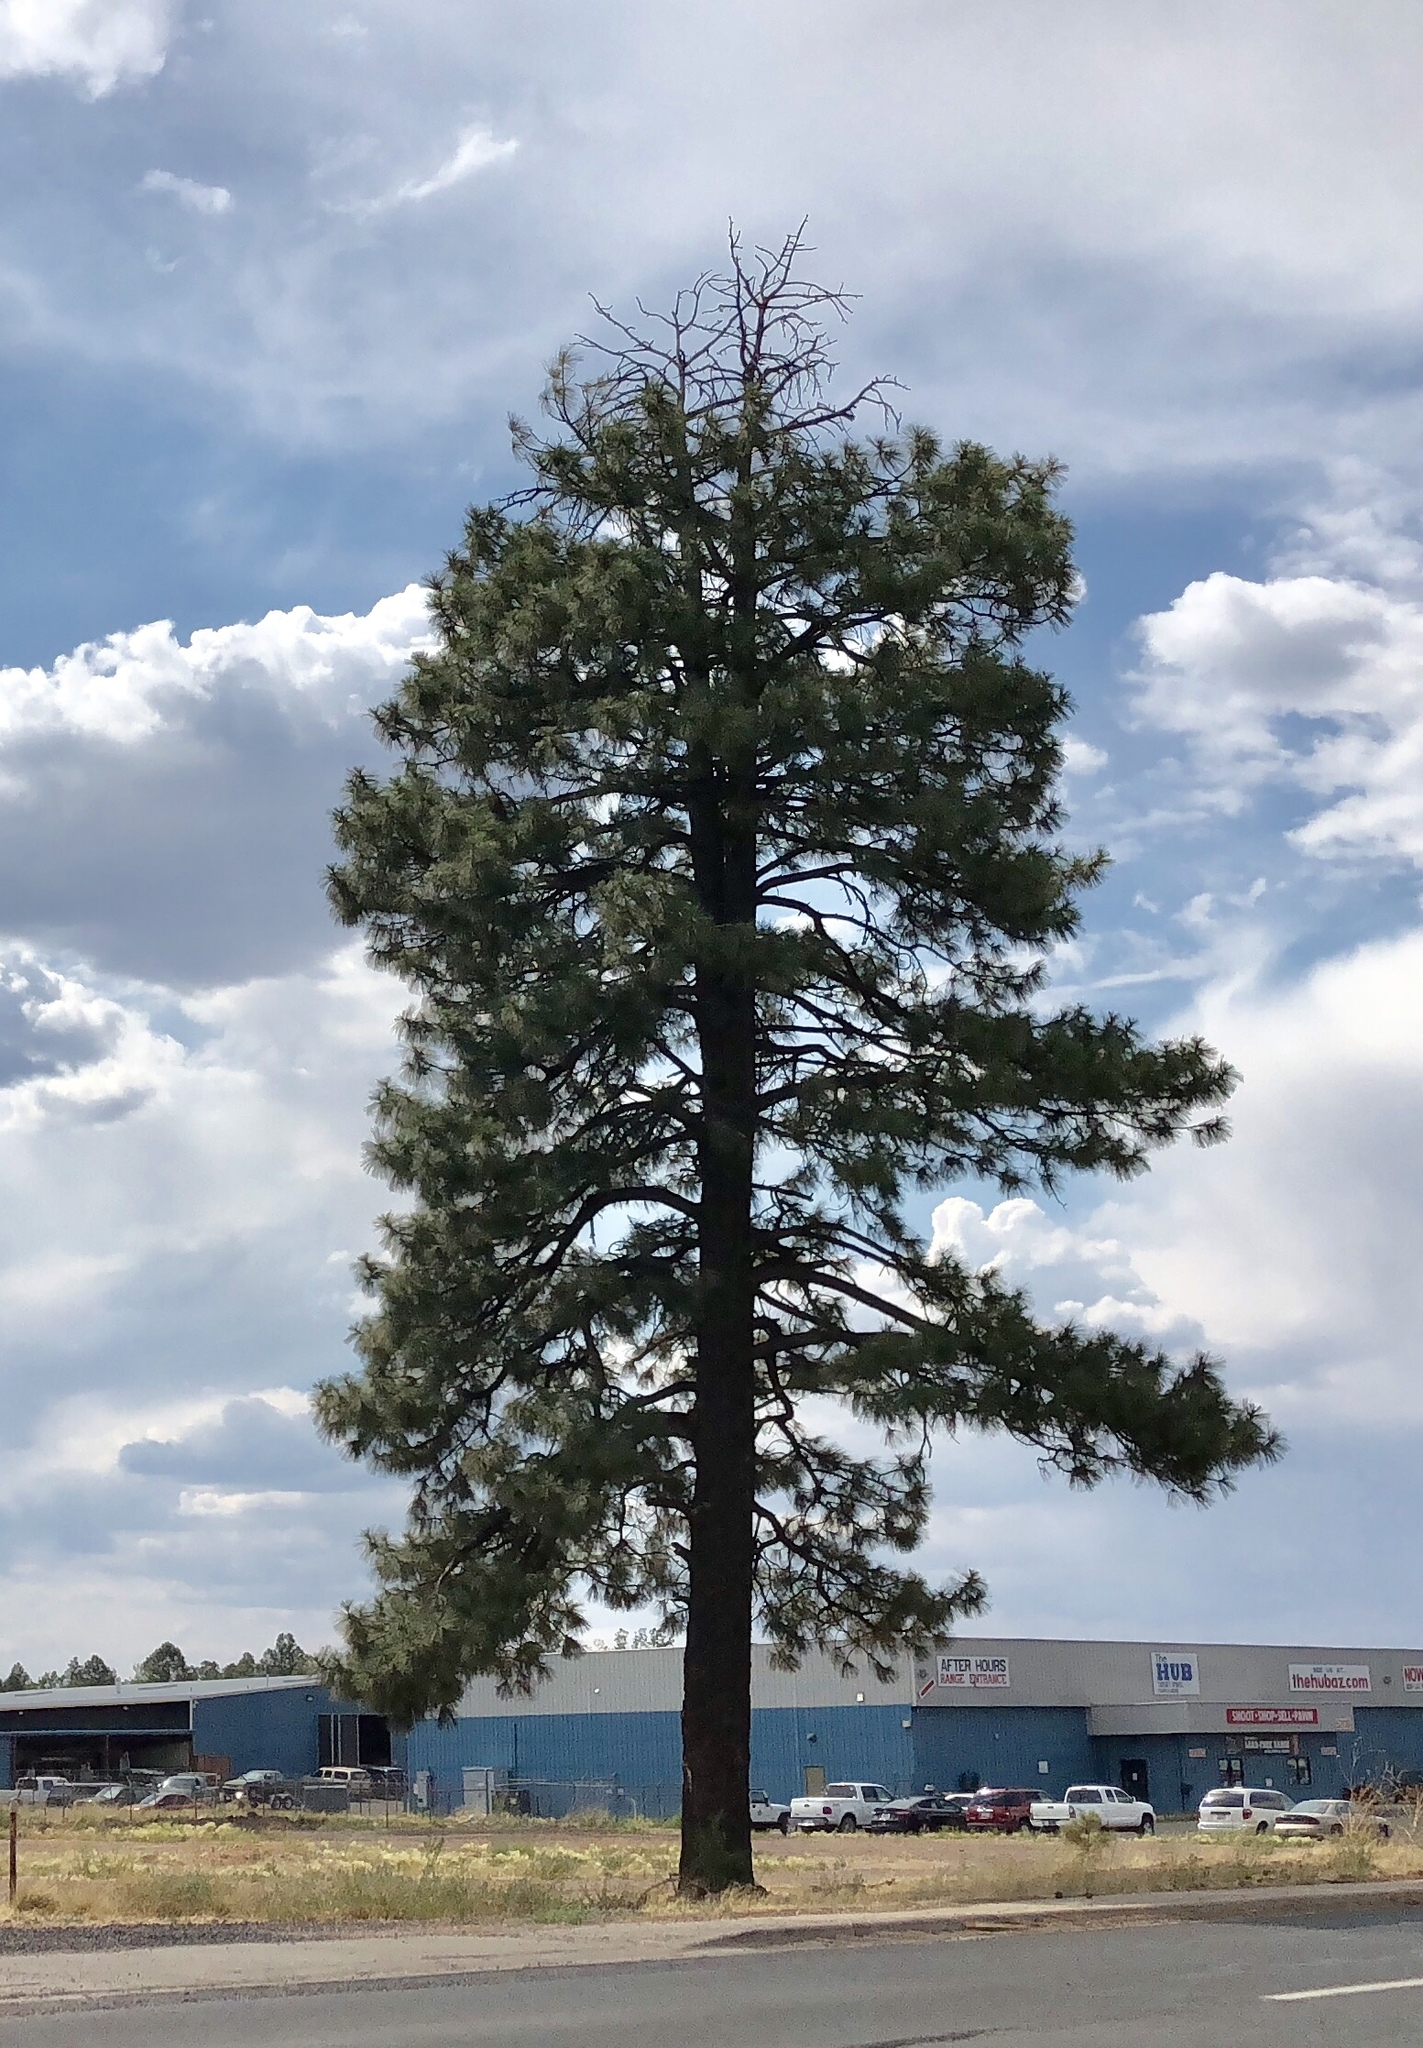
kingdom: Plantae
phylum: Tracheophyta
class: Pinopsida
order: Pinales
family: Pinaceae
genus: Pinus
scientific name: Pinus ponderosa
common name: Western yellow-pine
